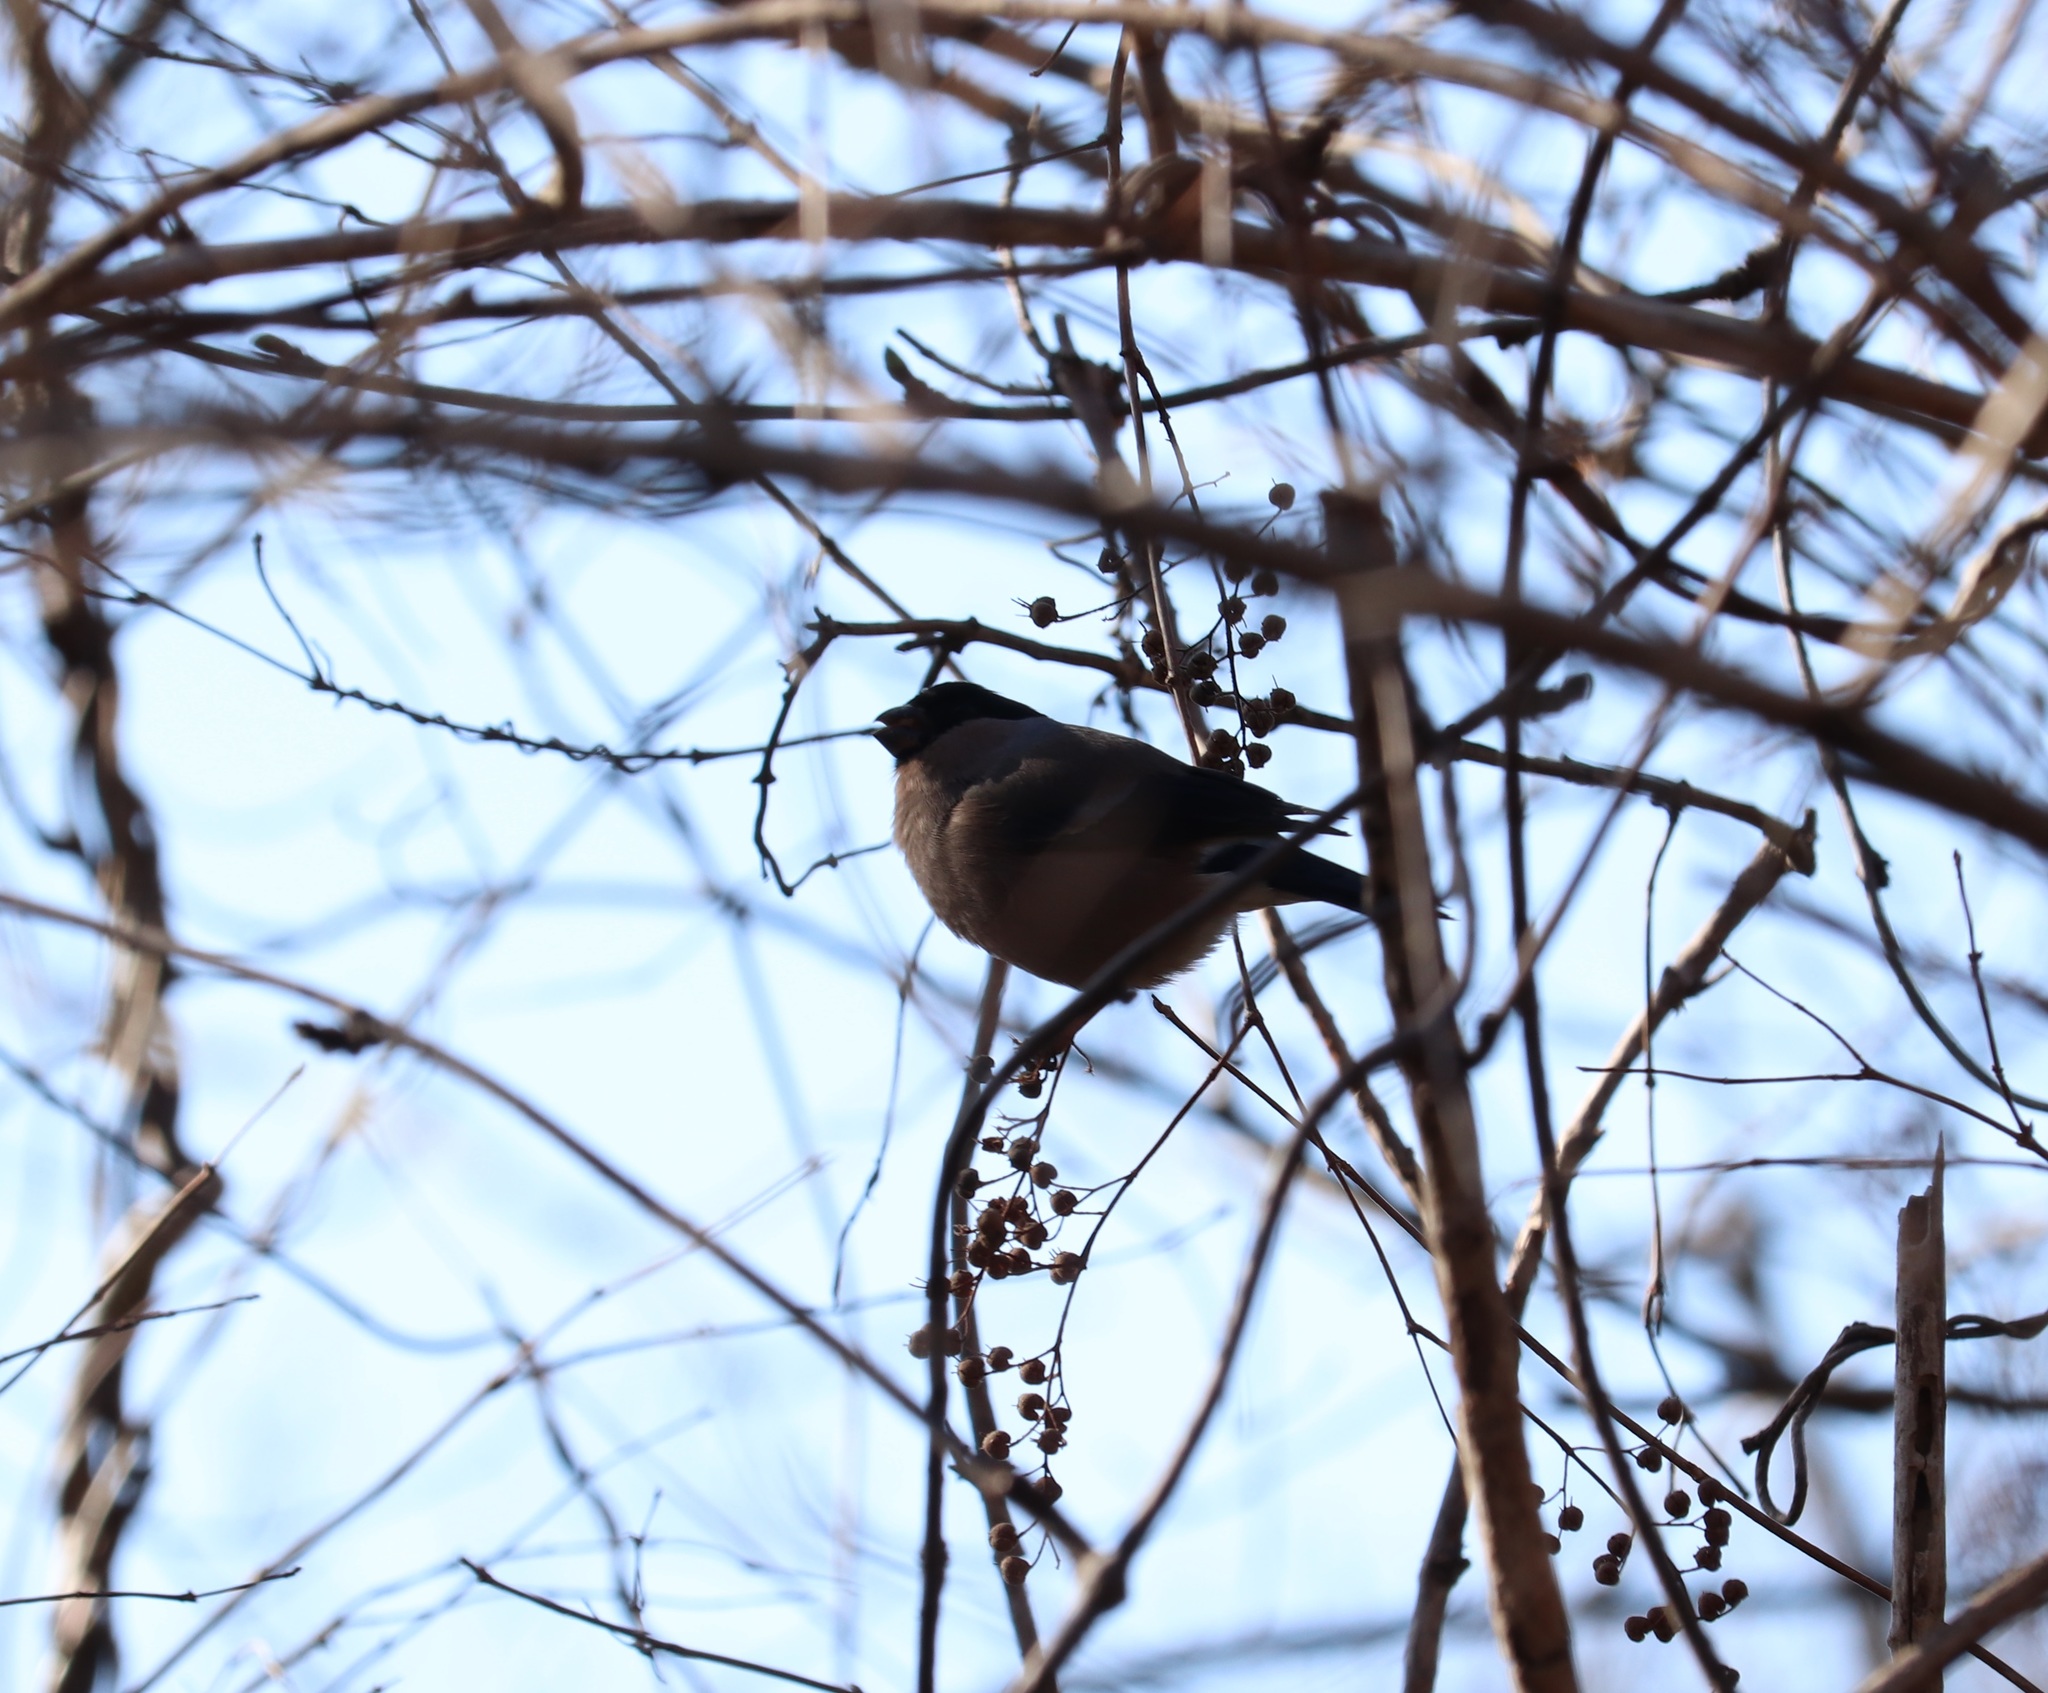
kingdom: Animalia
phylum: Chordata
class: Aves
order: Passeriformes
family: Fringillidae
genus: Pyrrhula
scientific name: Pyrrhula pyrrhula
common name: Eurasian bullfinch
